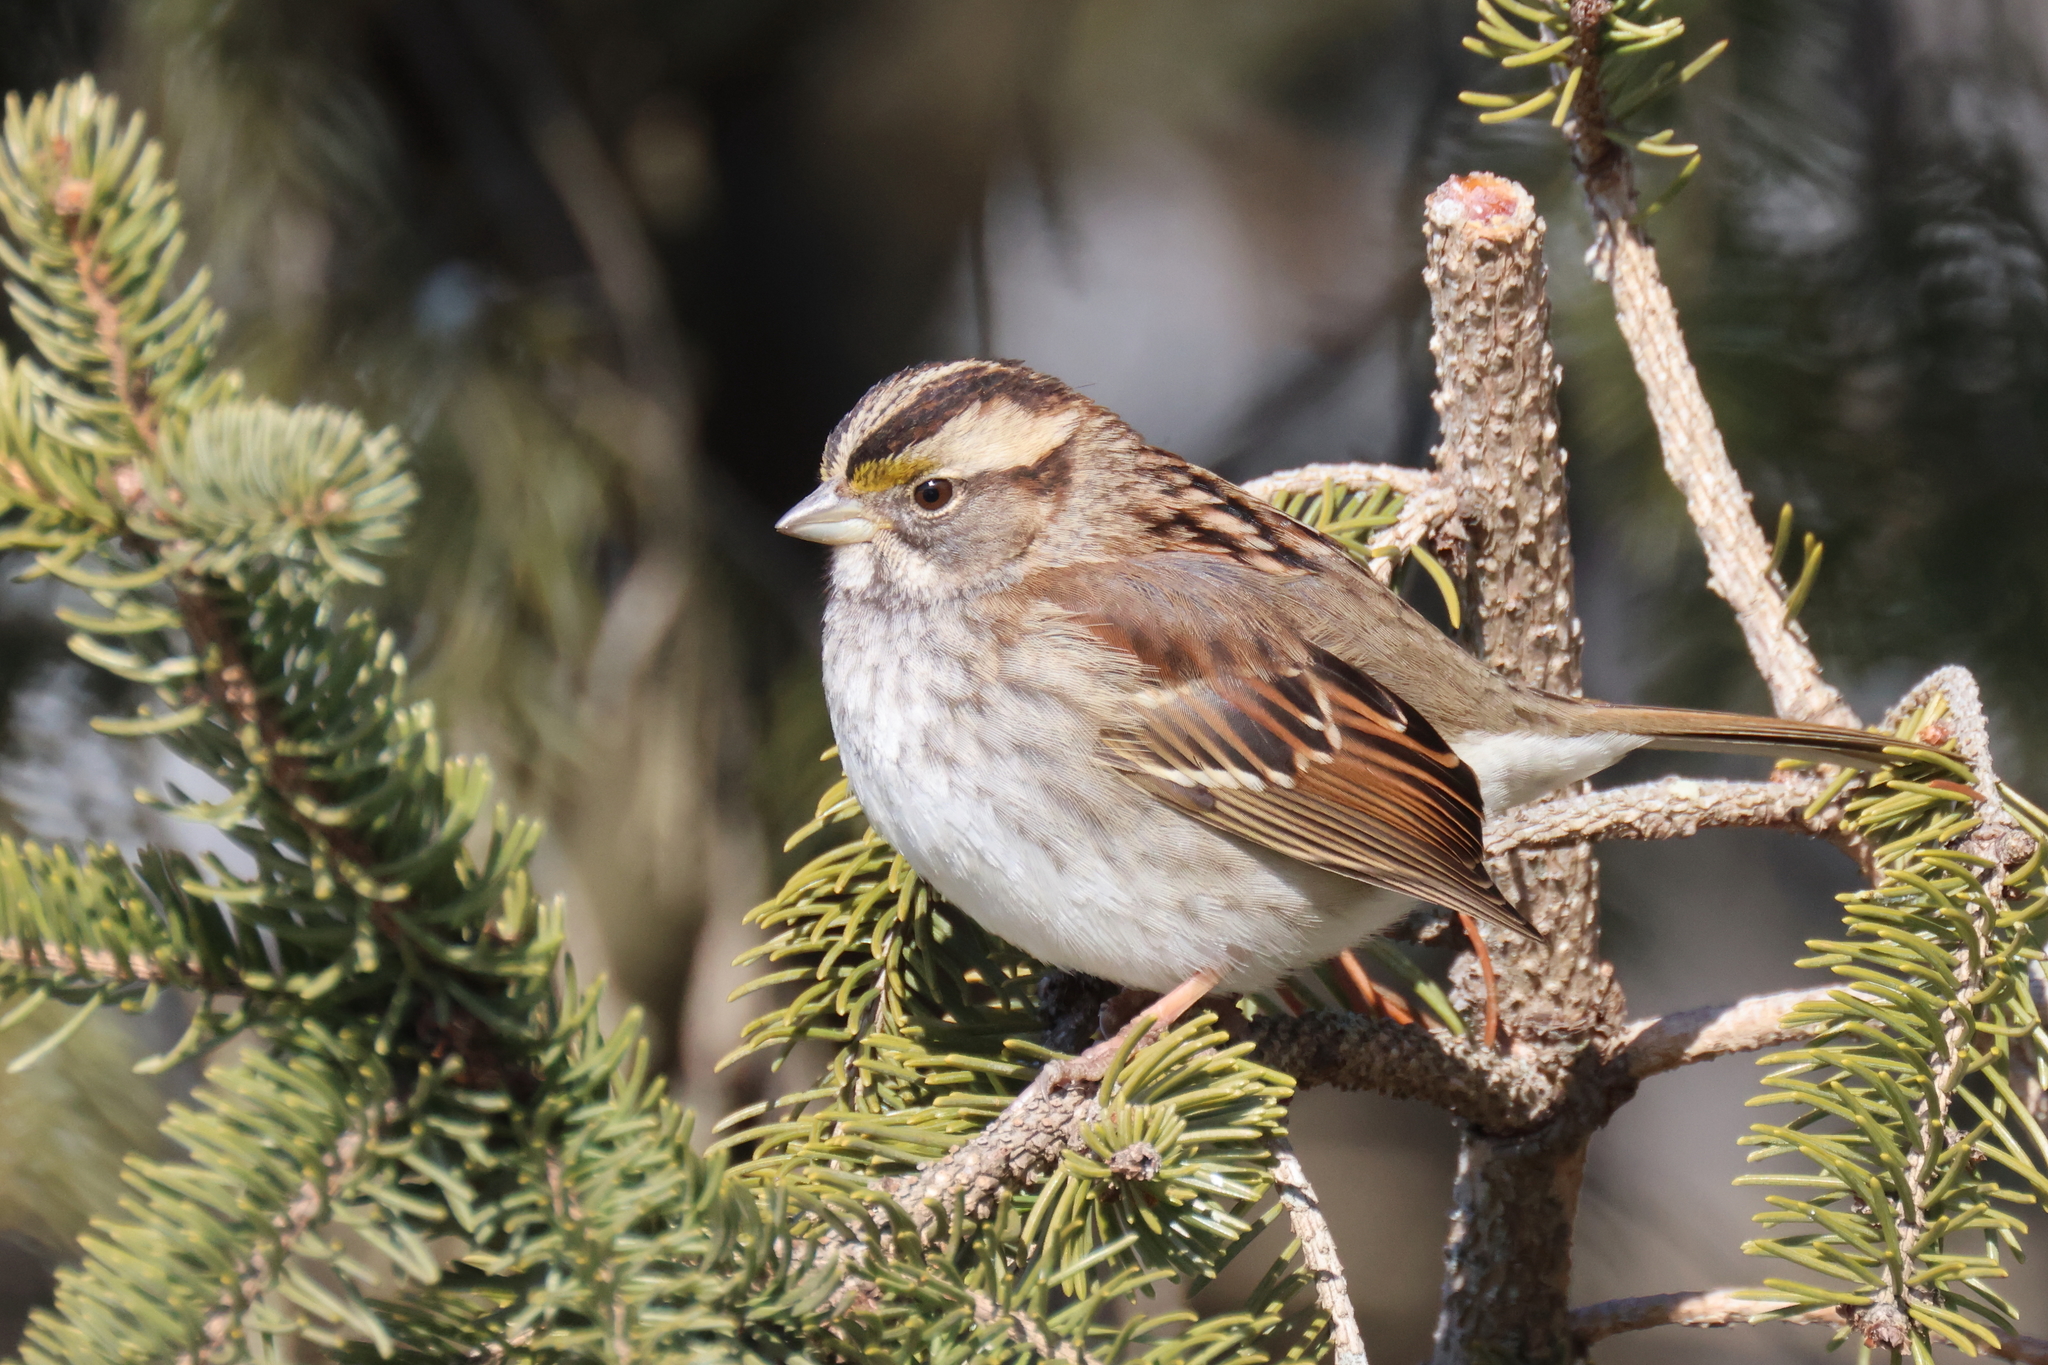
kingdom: Animalia
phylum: Chordata
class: Aves
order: Passeriformes
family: Passerellidae
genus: Zonotrichia
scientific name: Zonotrichia albicollis
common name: White-throated sparrow
